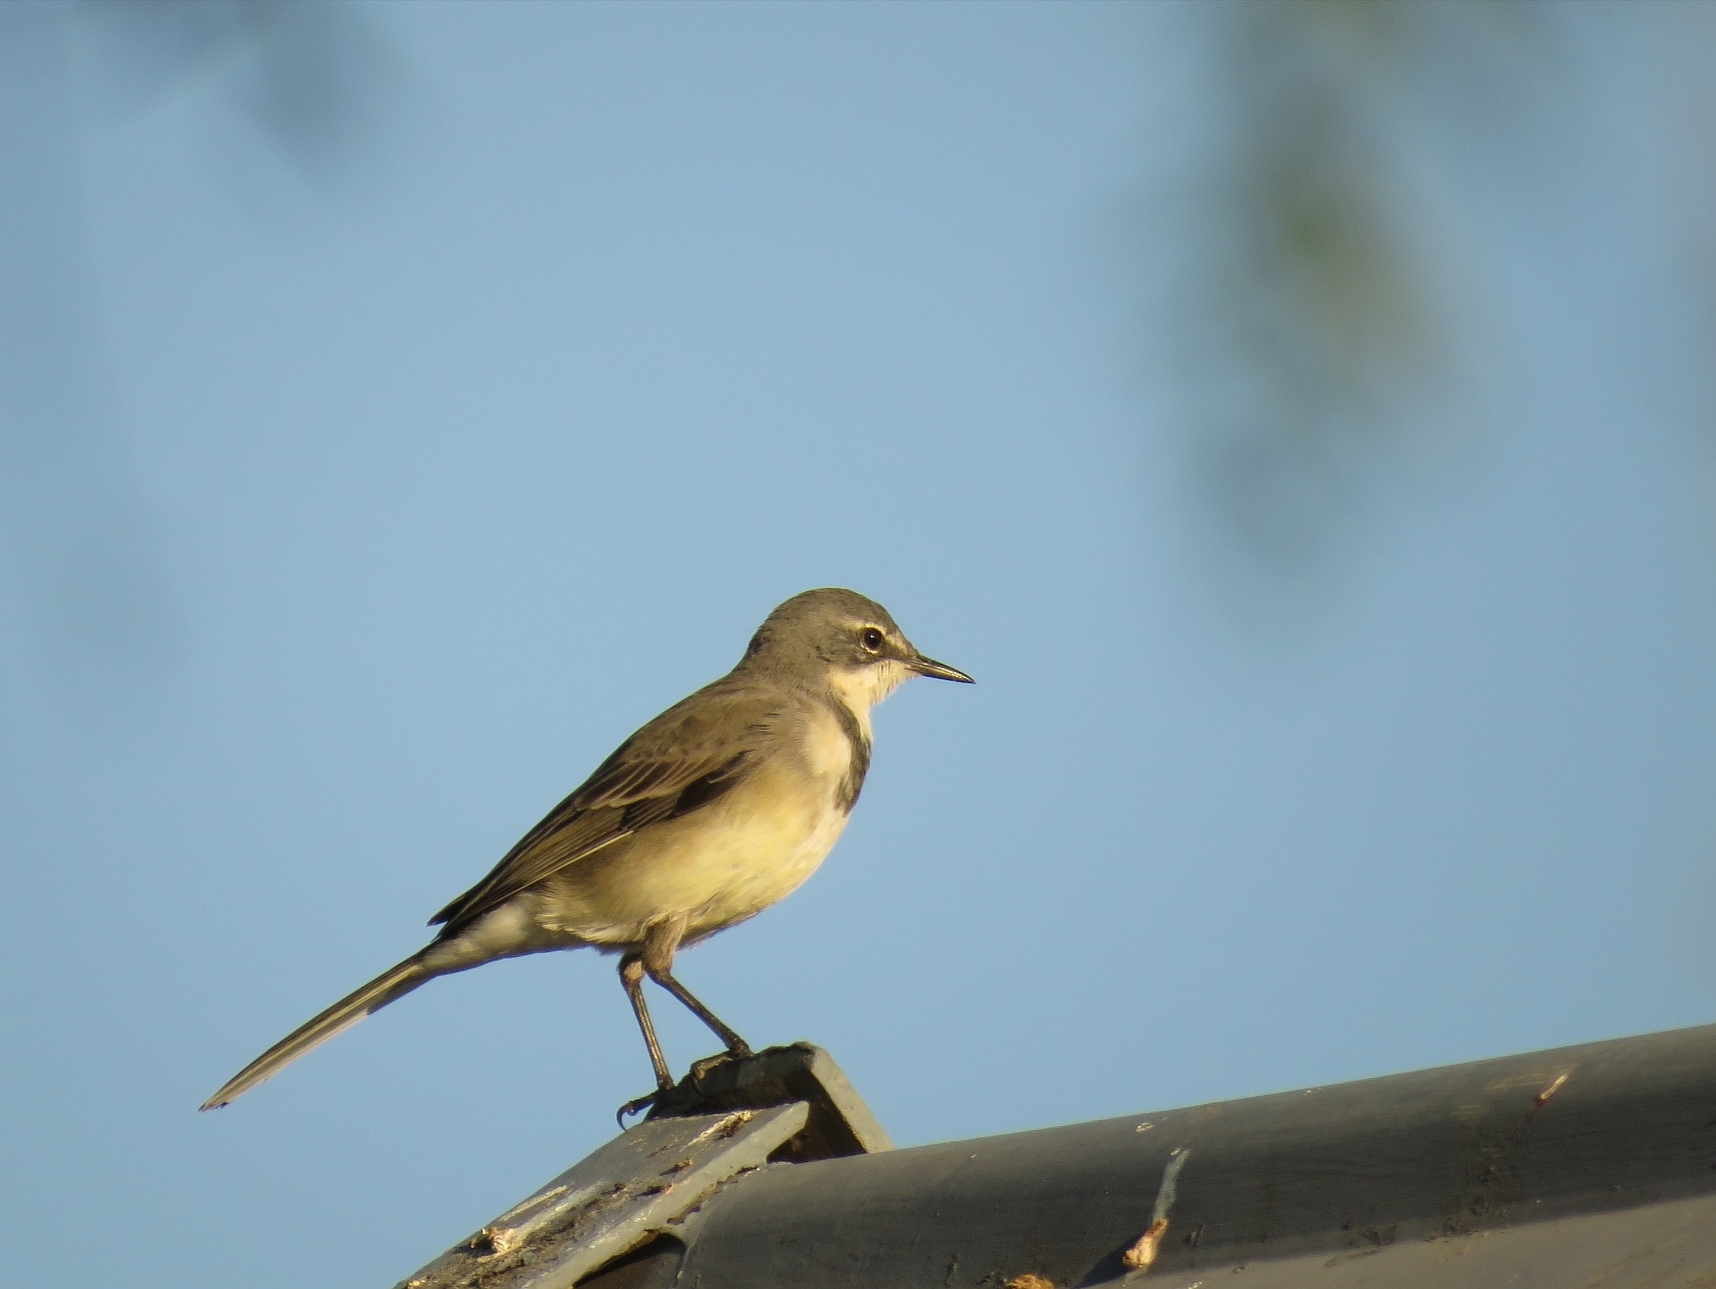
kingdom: Animalia
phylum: Chordata
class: Aves
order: Passeriformes
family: Motacillidae
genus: Motacilla
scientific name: Motacilla capensis
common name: Cape wagtail
